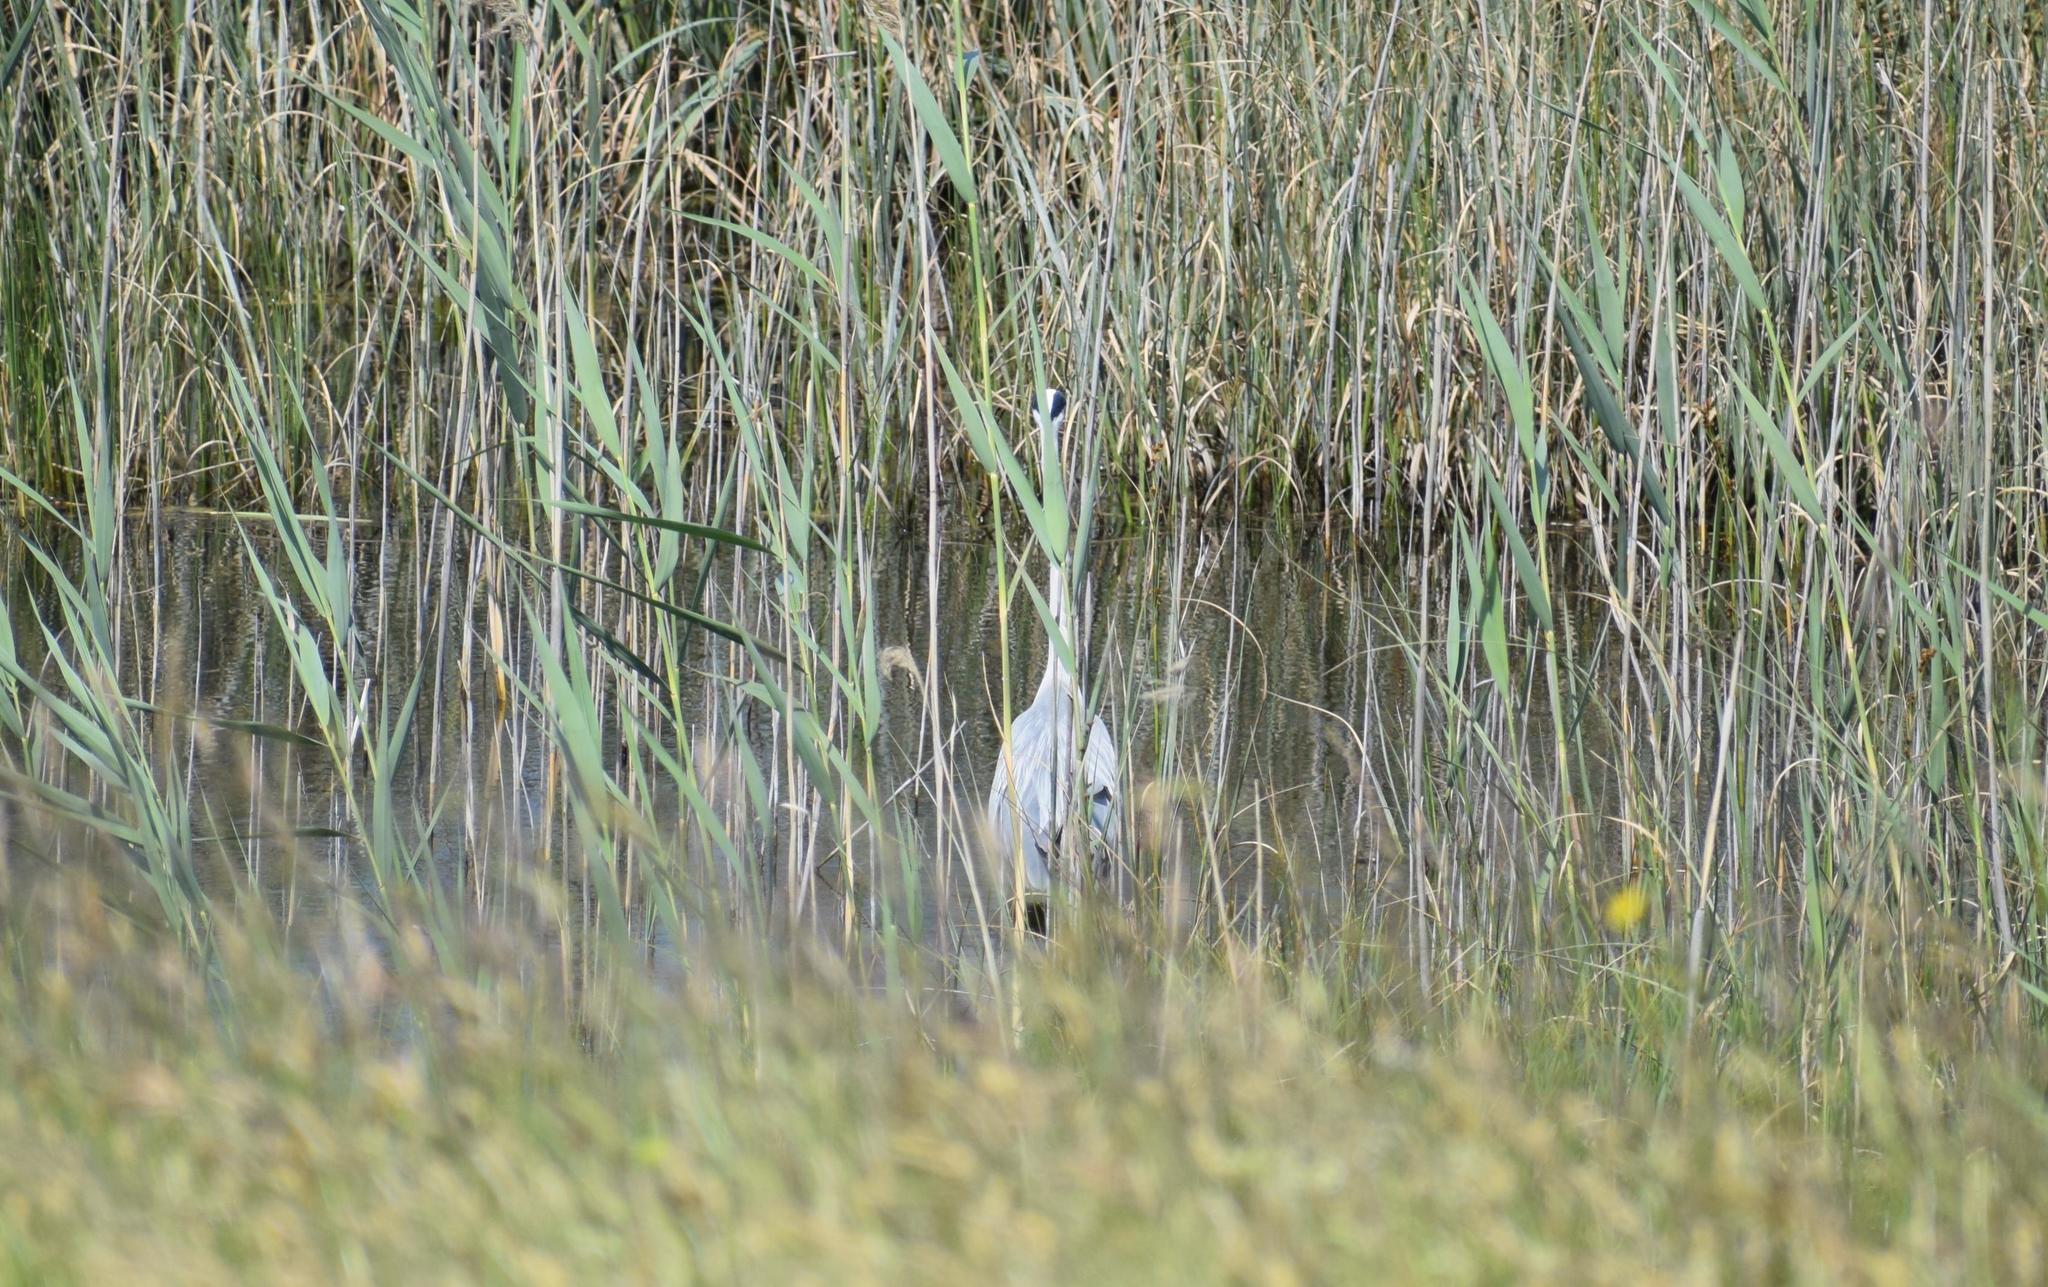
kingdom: Animalia
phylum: Chordata
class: Aves
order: Pelecaniformes
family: Ardeidae
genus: Ardea
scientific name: Ardea cinerea
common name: Grey heron
